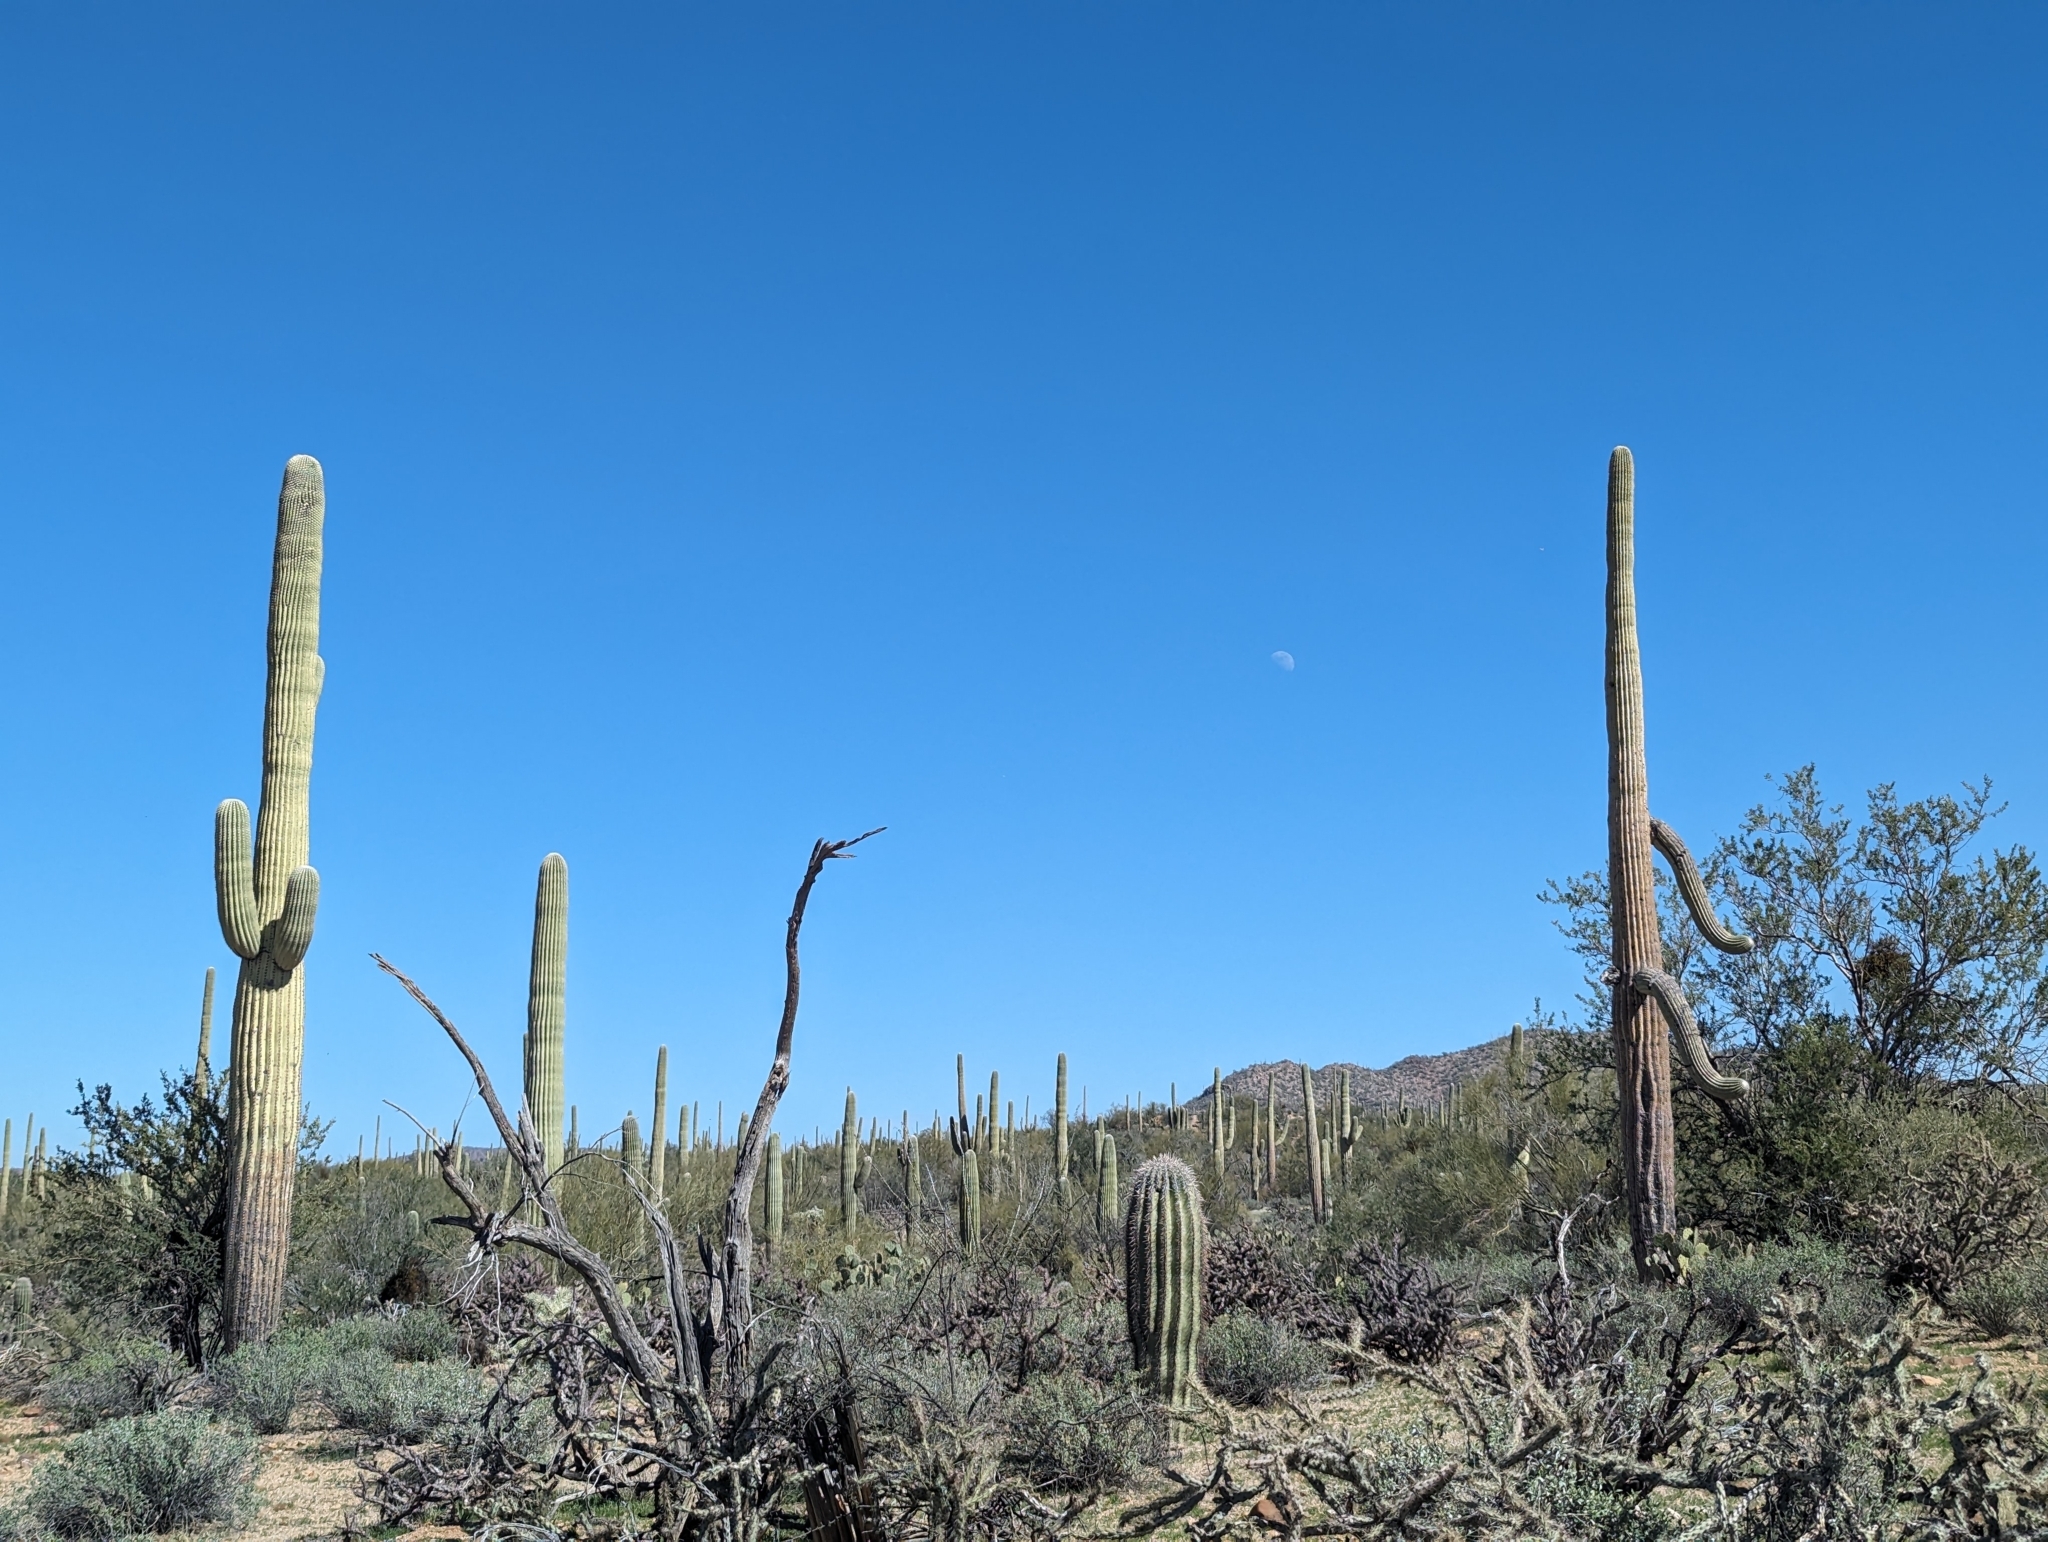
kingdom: Plantae
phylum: Tracheophyta
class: Magnoliopsida
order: Caryophyllales
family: Cactaceae
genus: Carnegiea
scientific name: Carnegiea gigantea
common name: Saguaro
